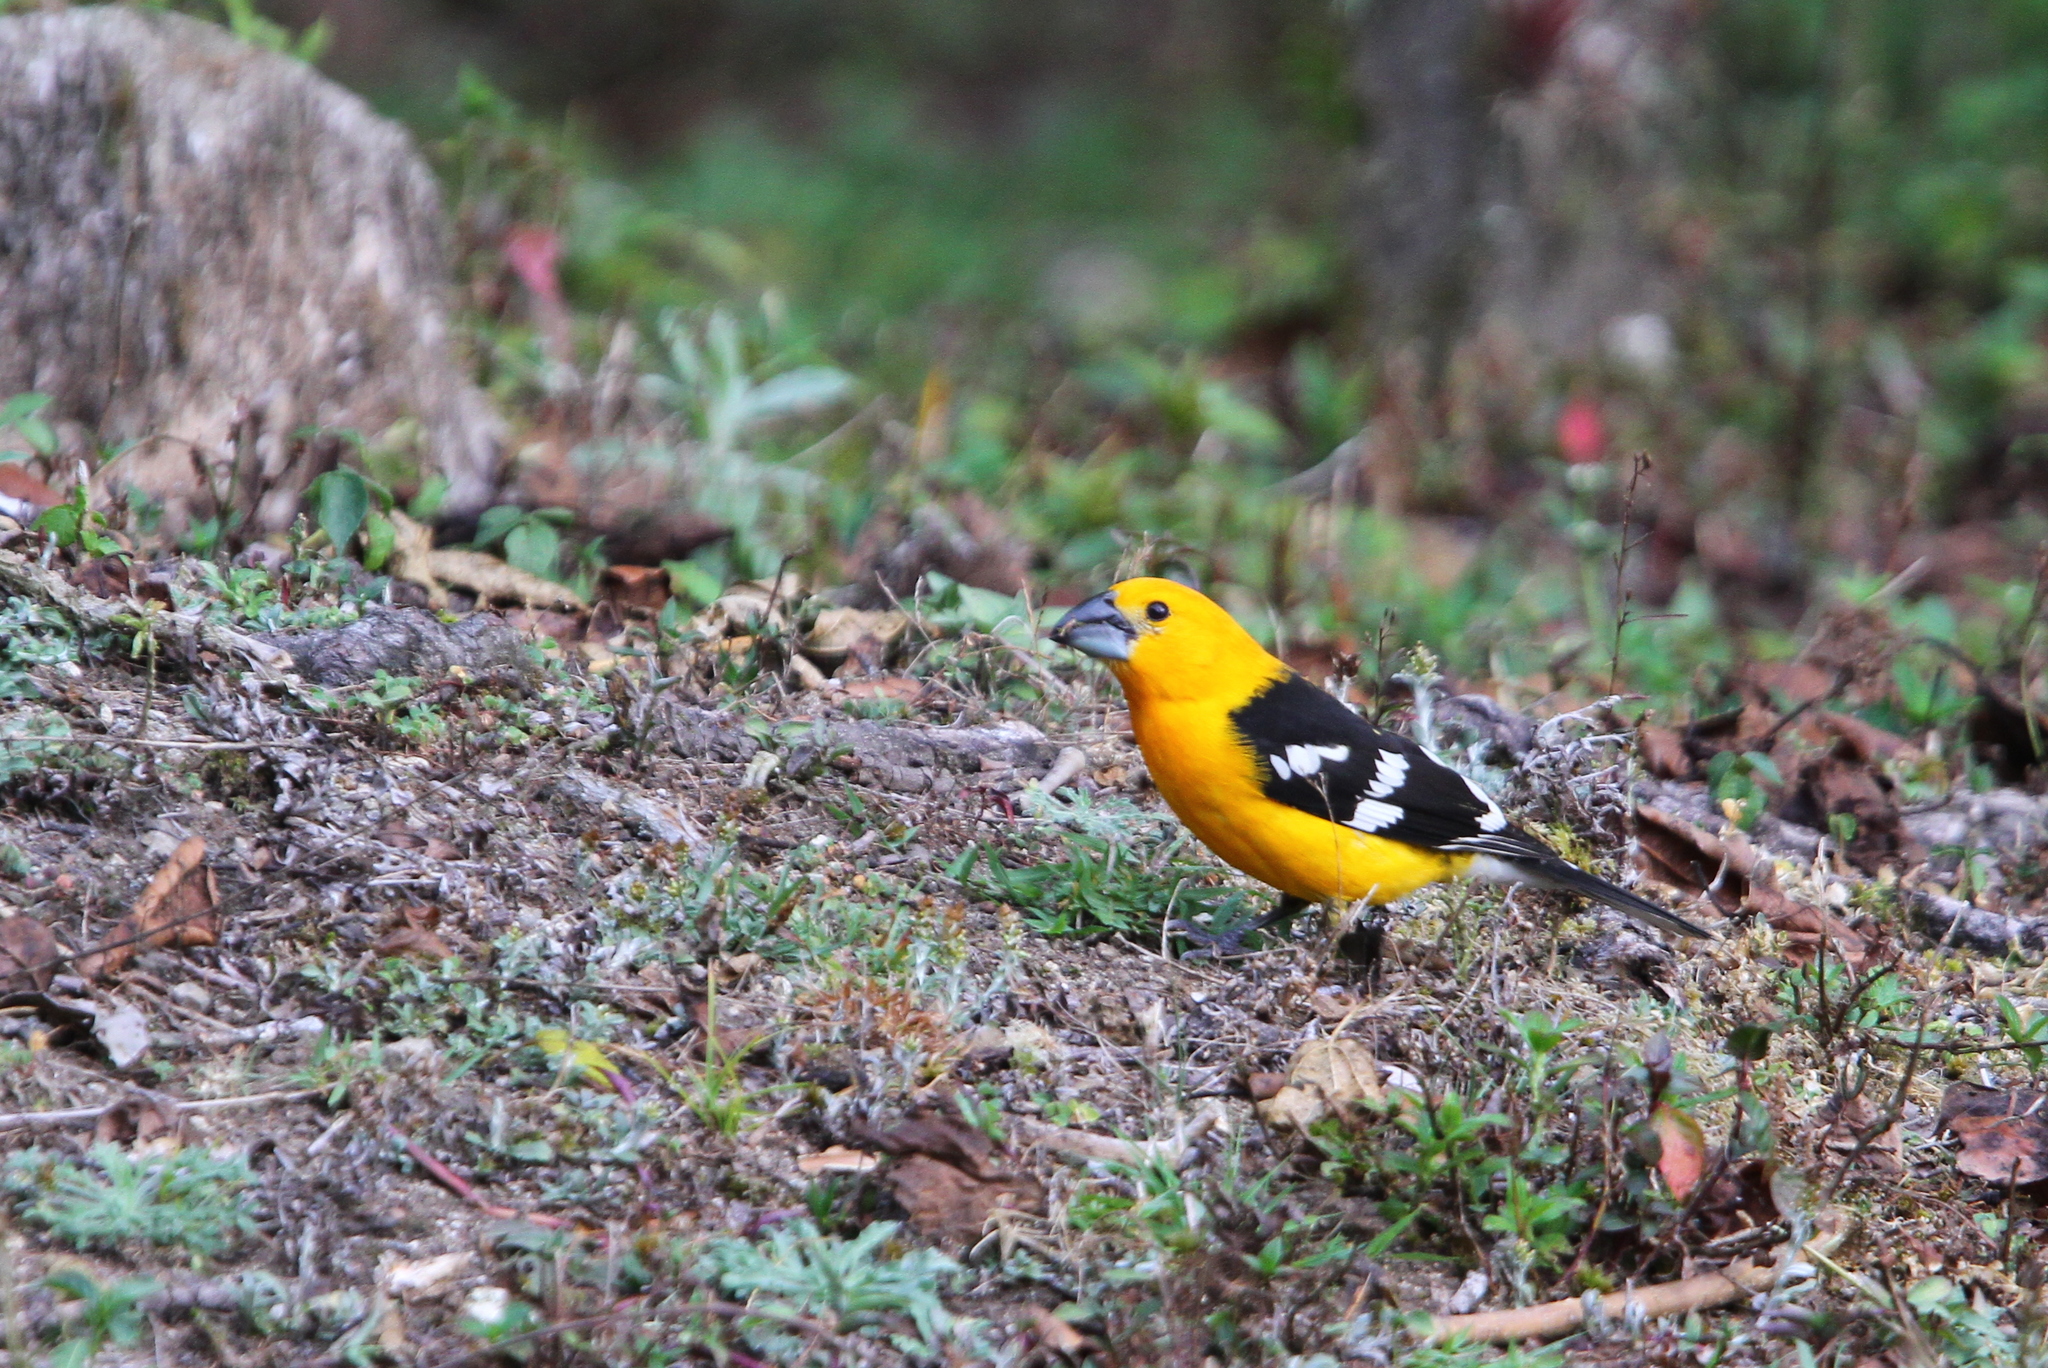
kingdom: Animalia
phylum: Chordata
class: Aves
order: Passeriformes
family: Cardinalidae
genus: Pheucticus
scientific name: Pheucticus chrysopeplus
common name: Yellow grosbeak
